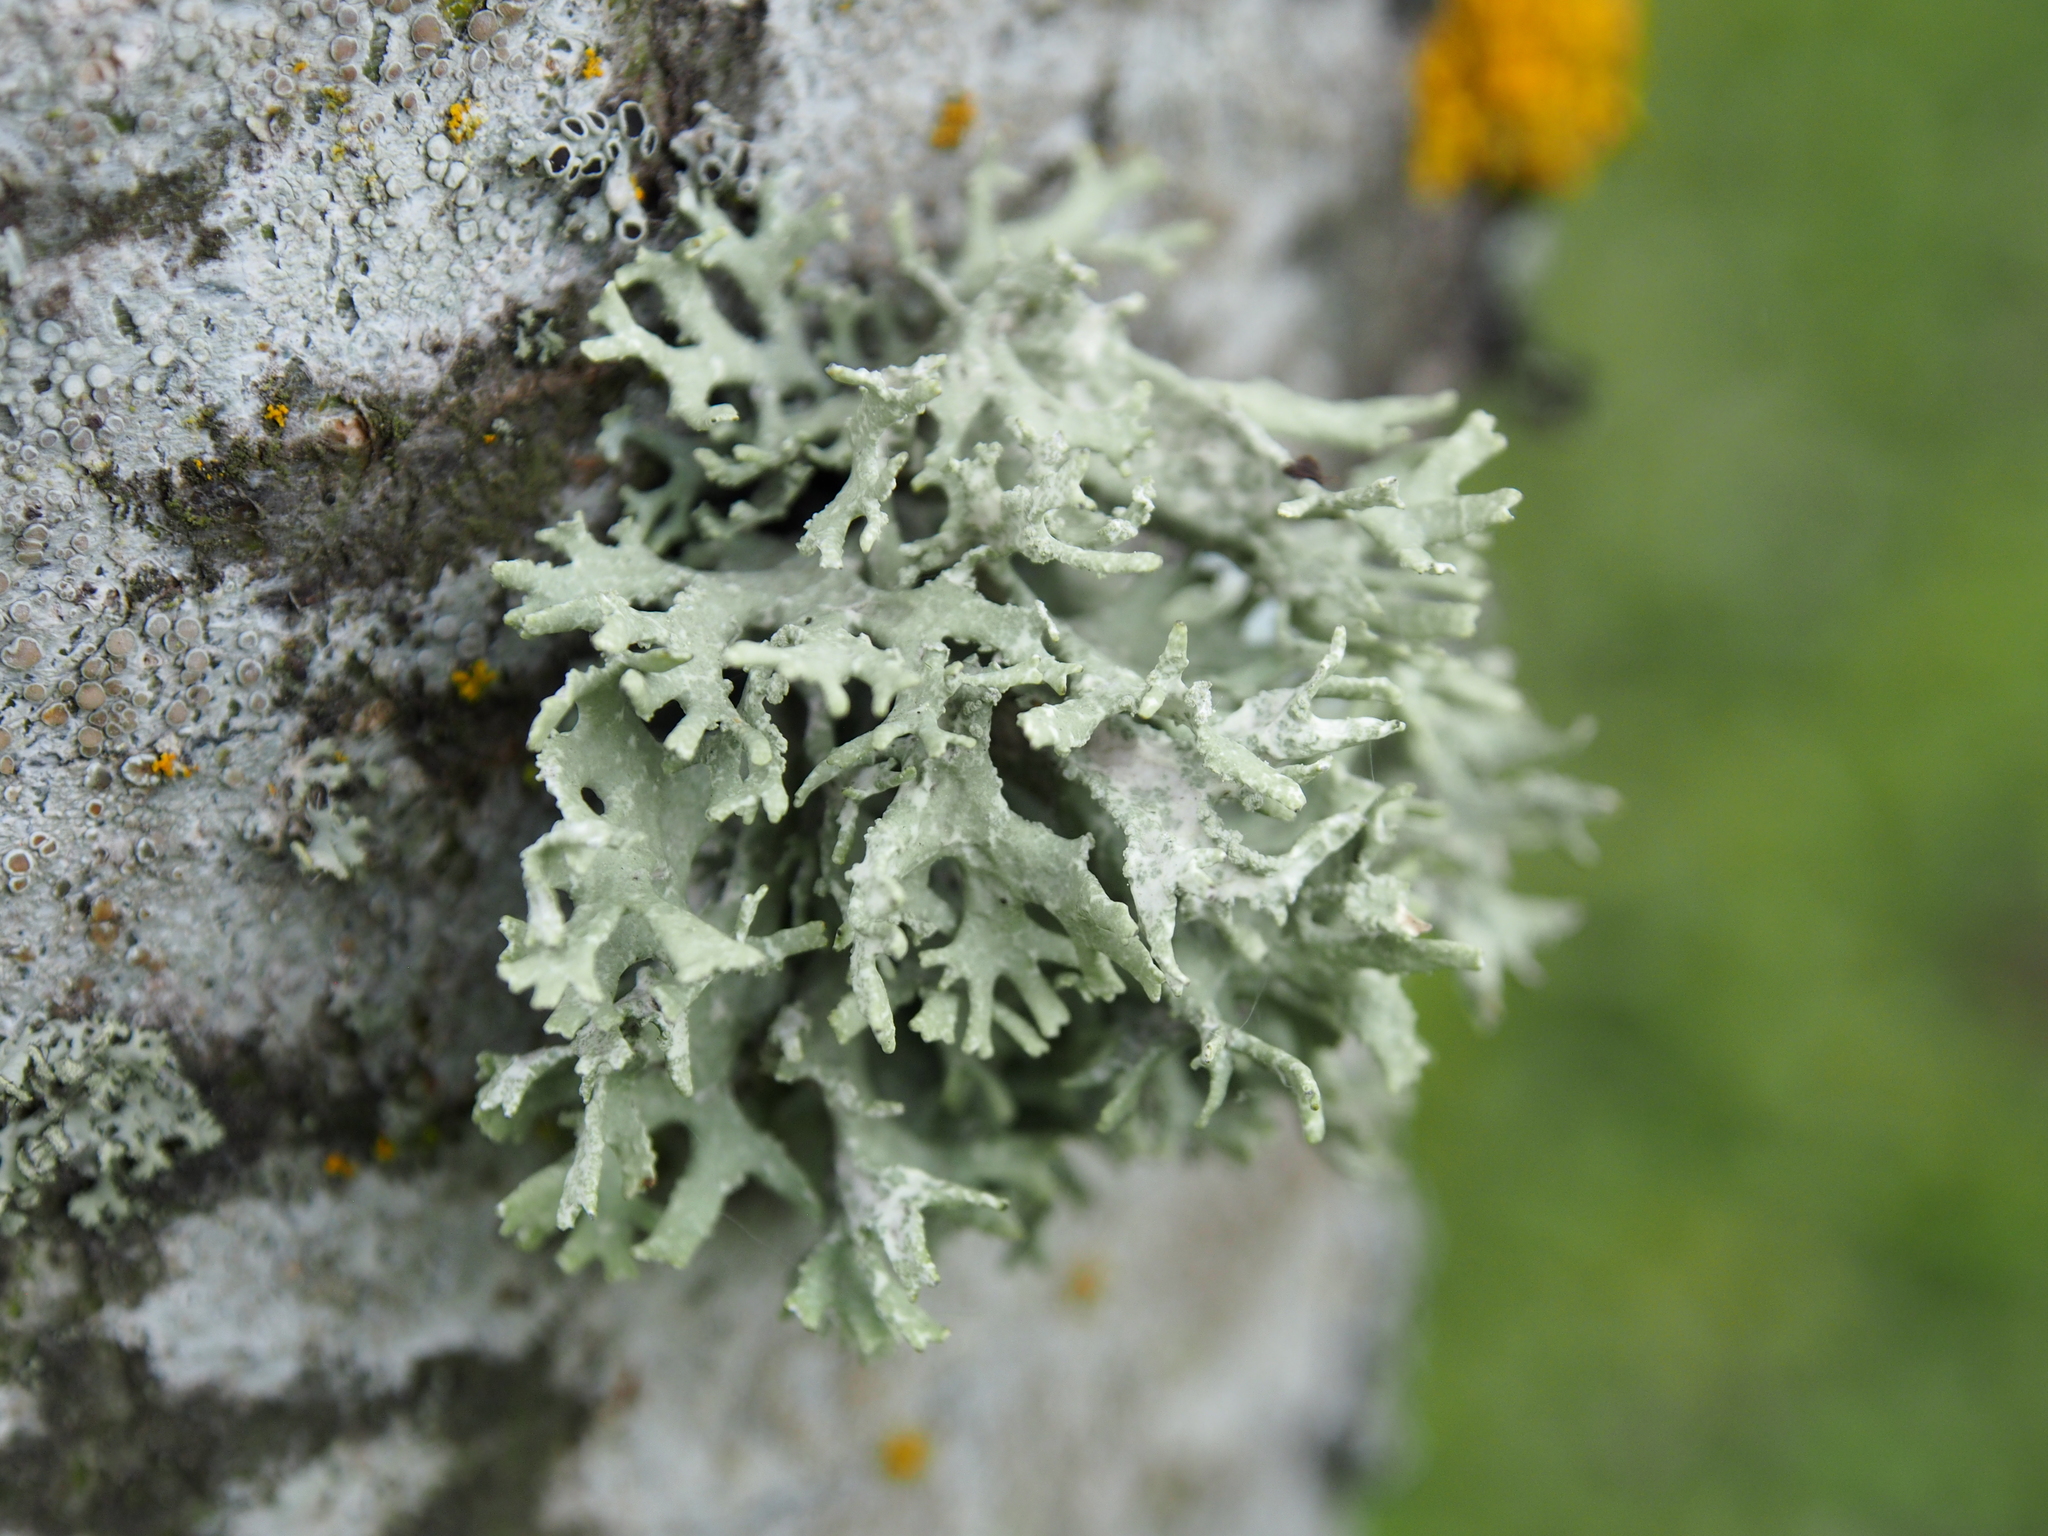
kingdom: Fungi
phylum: Ascomycota
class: Lecanoromycetes
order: Lecanorales
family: Parmeliaceae
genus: Evernia
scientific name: Evernia prunastri
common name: Oak moss
